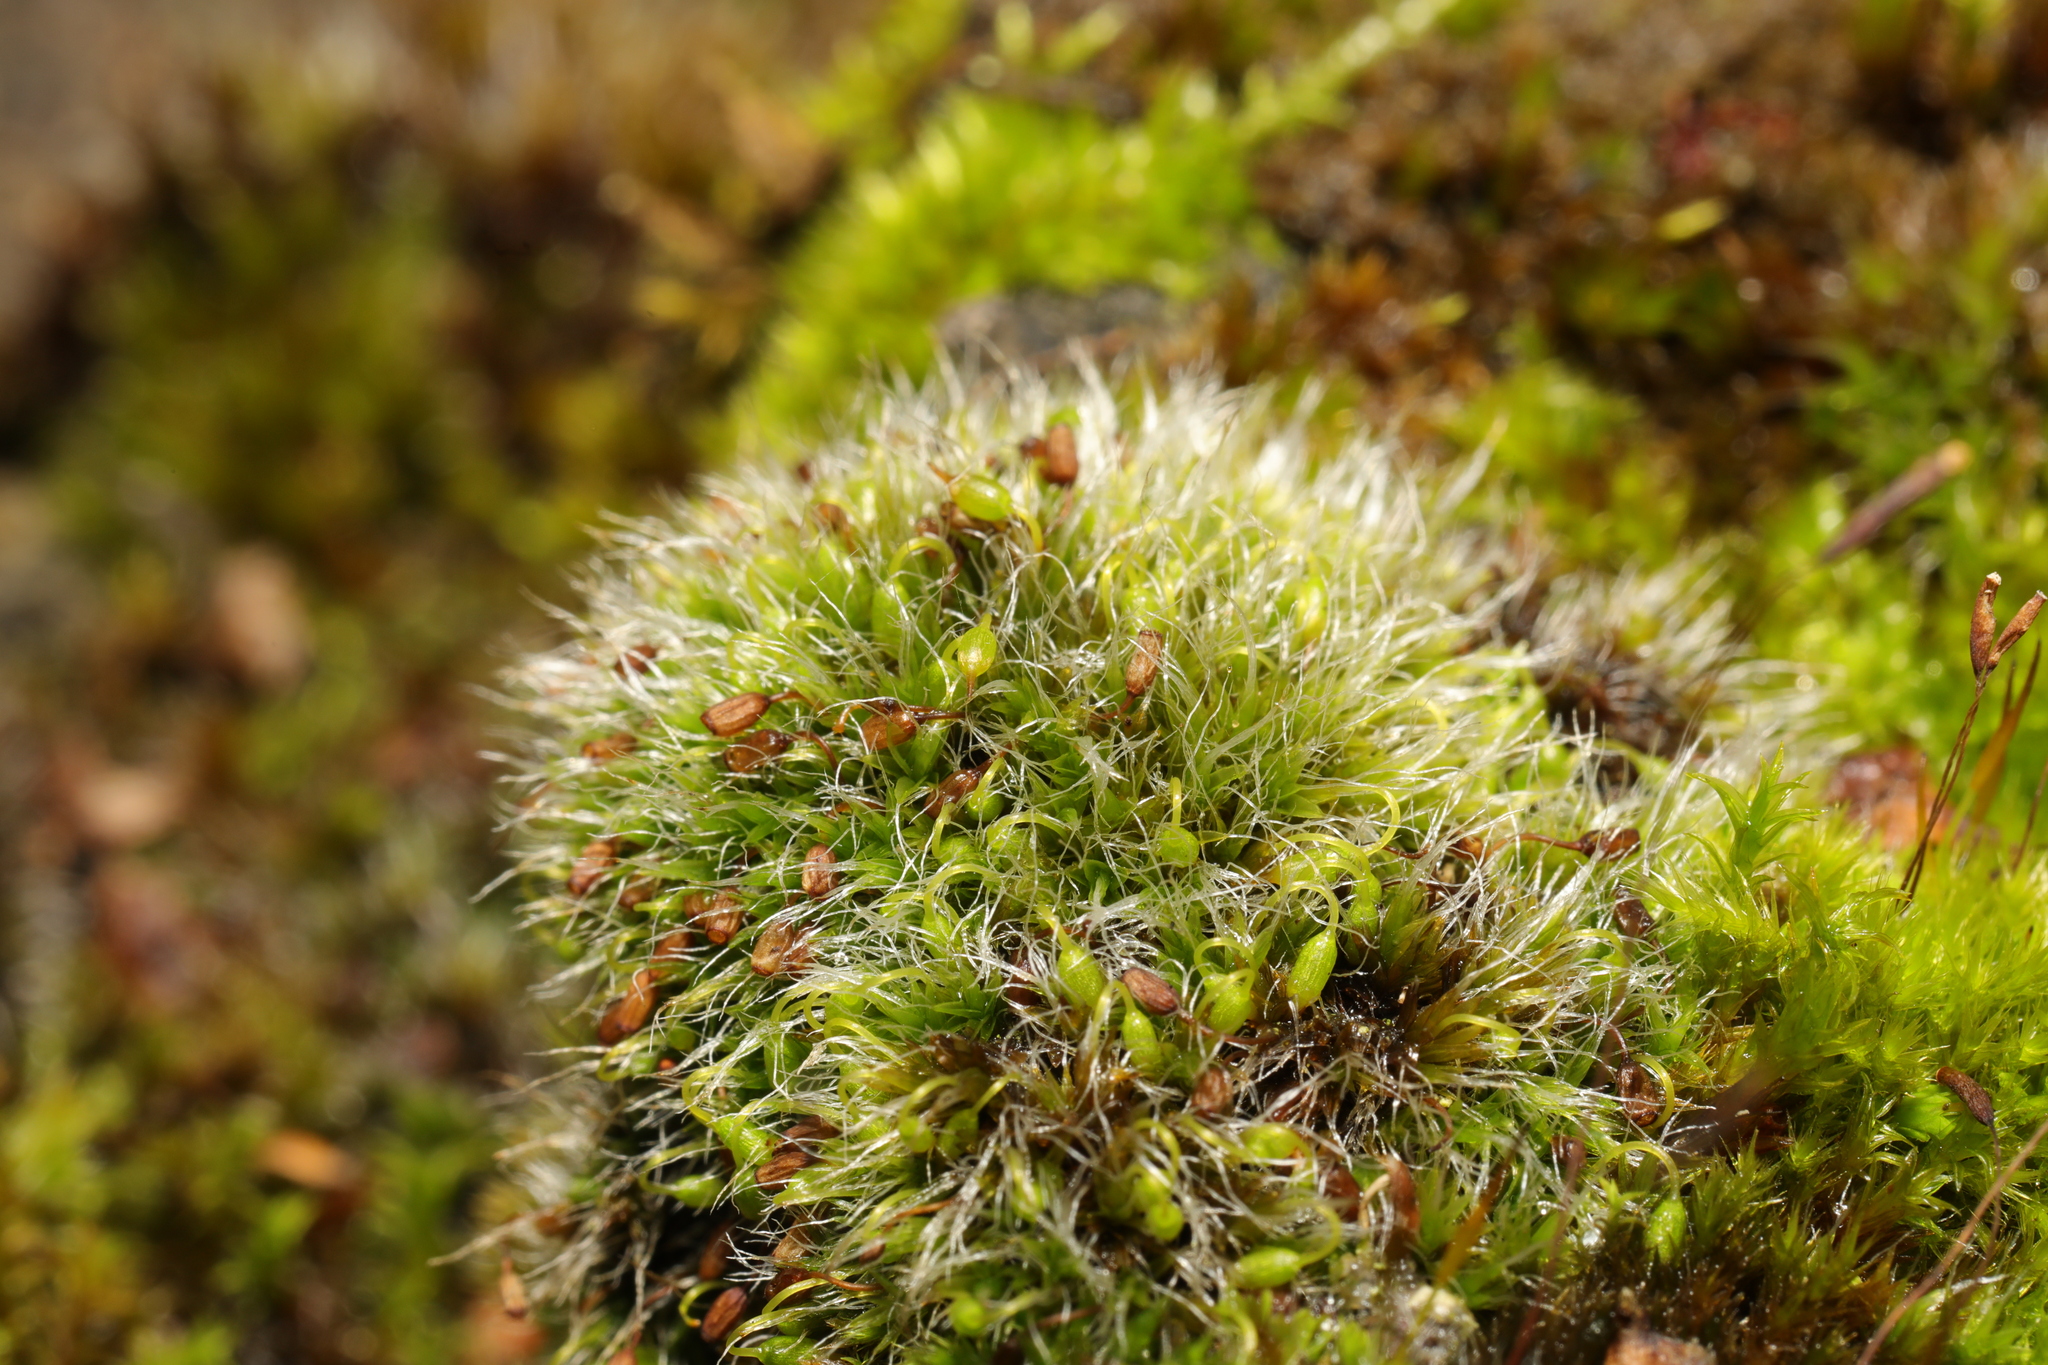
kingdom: Plantae
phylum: Bryophyta
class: Bryopsida
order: Grimmiales
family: Grimmiaceae
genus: Grimmia
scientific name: Grimmia pulvinata
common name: Grey-cushioned grimmia
